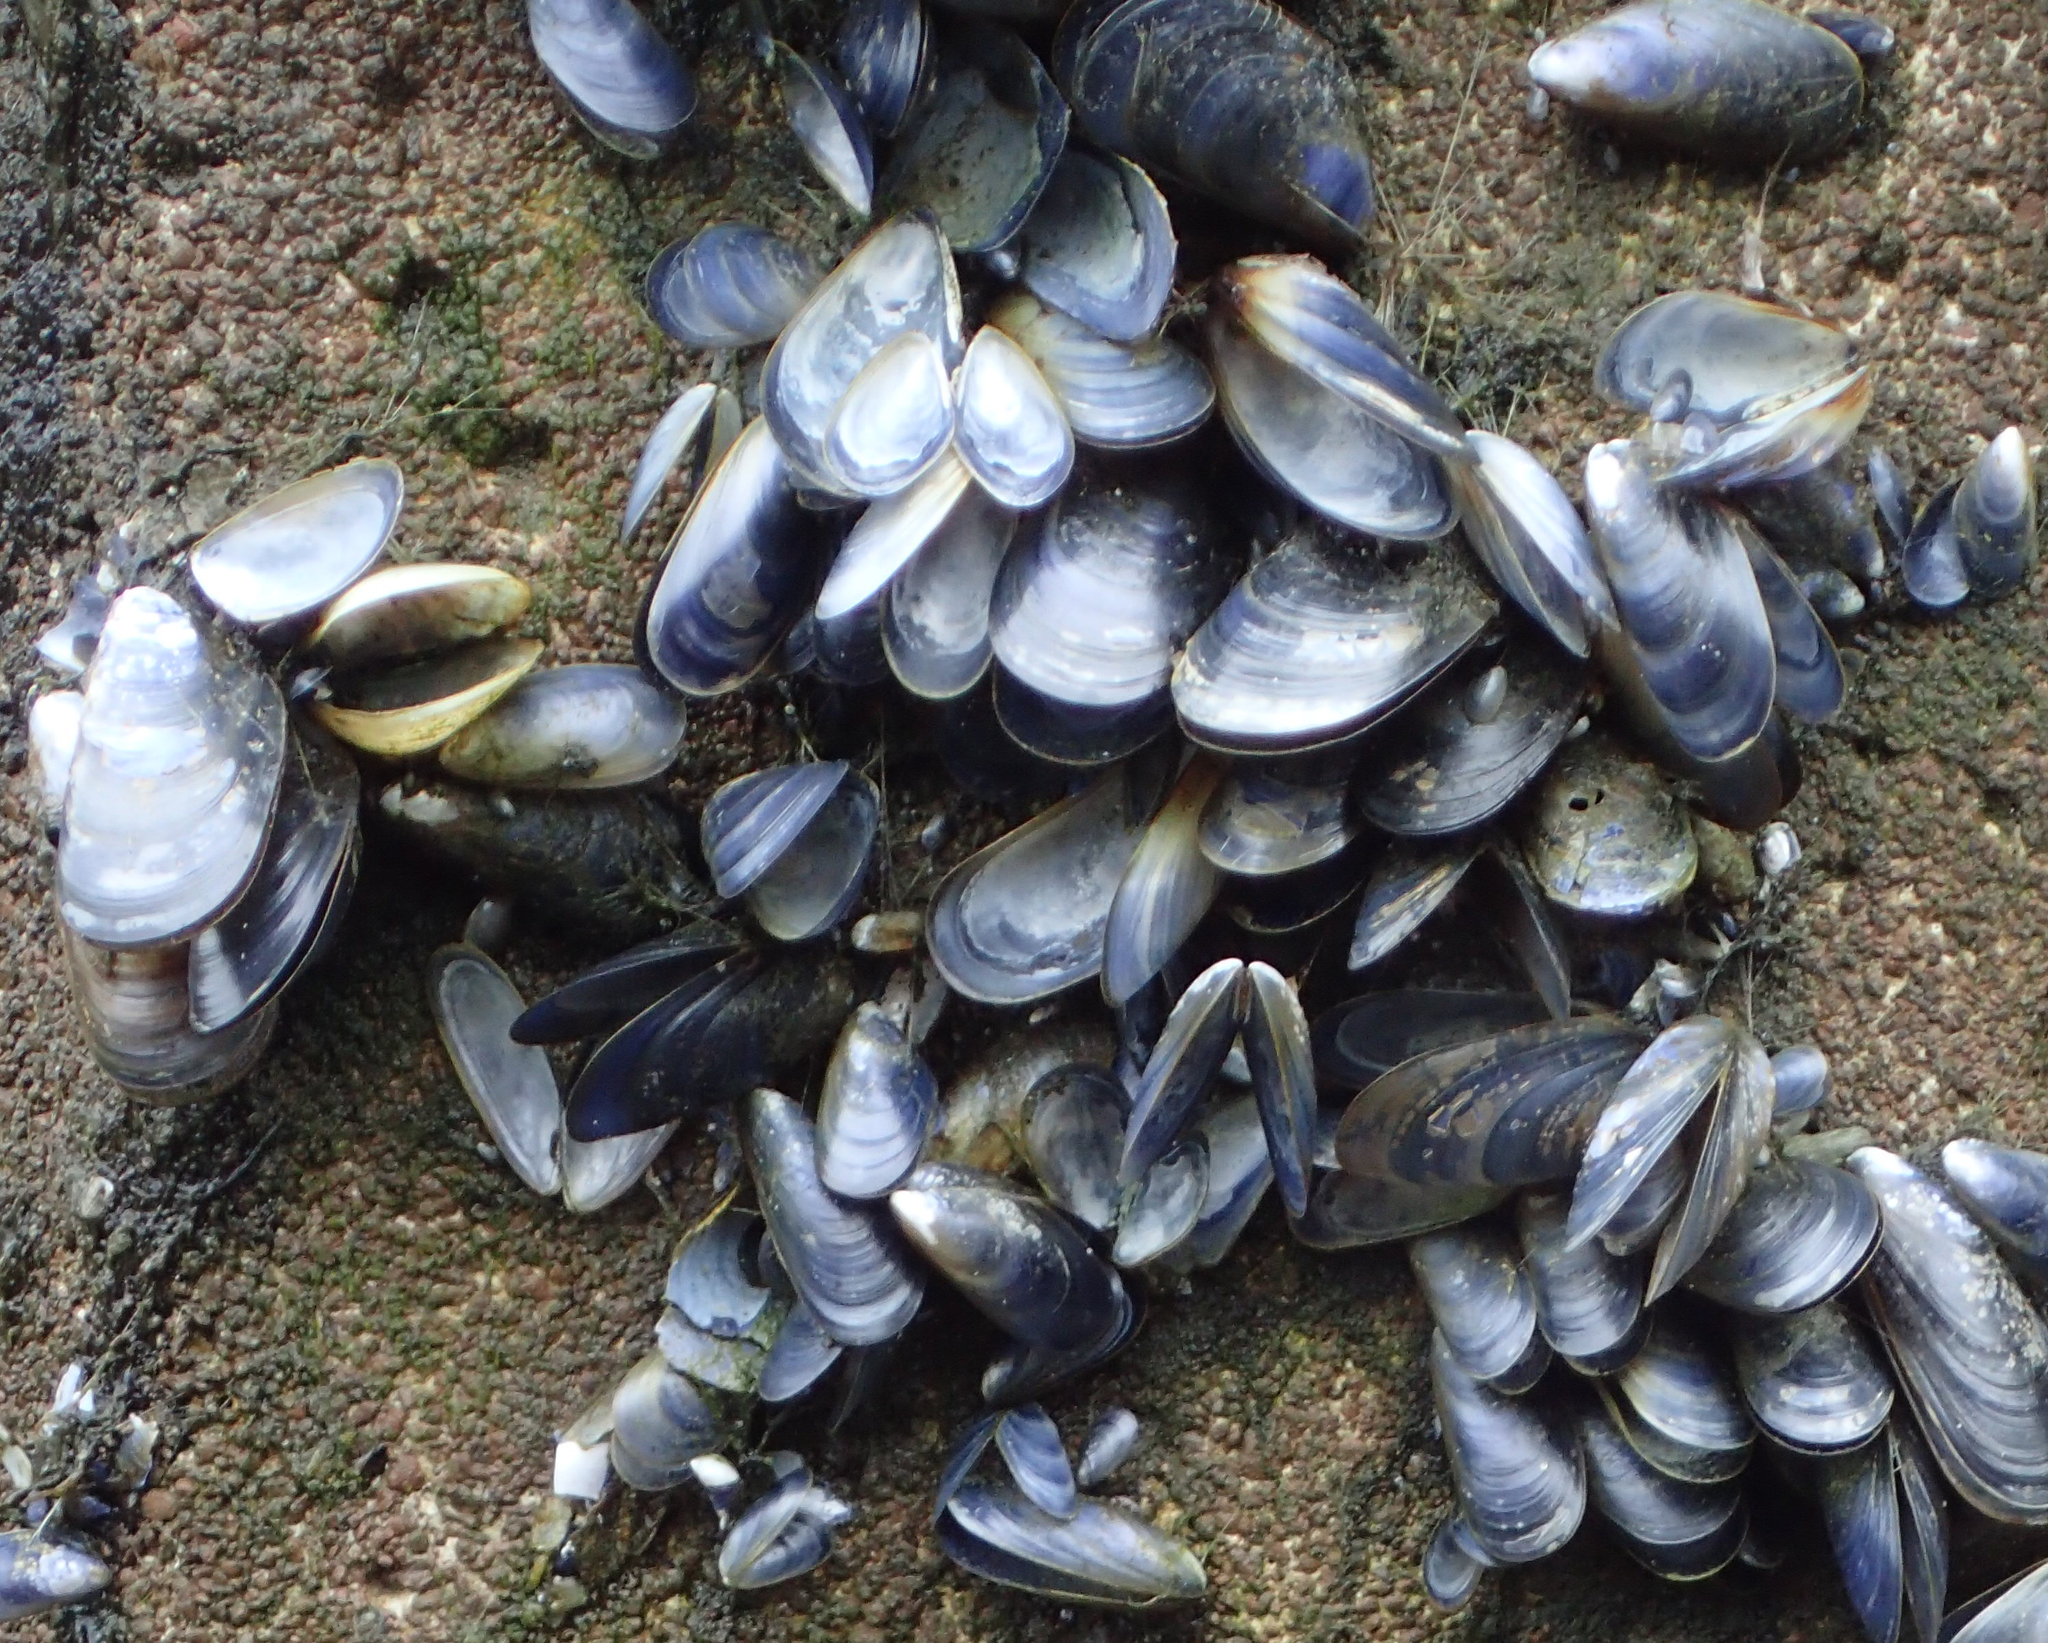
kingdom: Animalia
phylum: Mollusca
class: Bivalvia
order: Mytilida
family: Mytilidae
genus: Mytilus
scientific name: Mytilus trossulus
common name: Northern blue mussel
